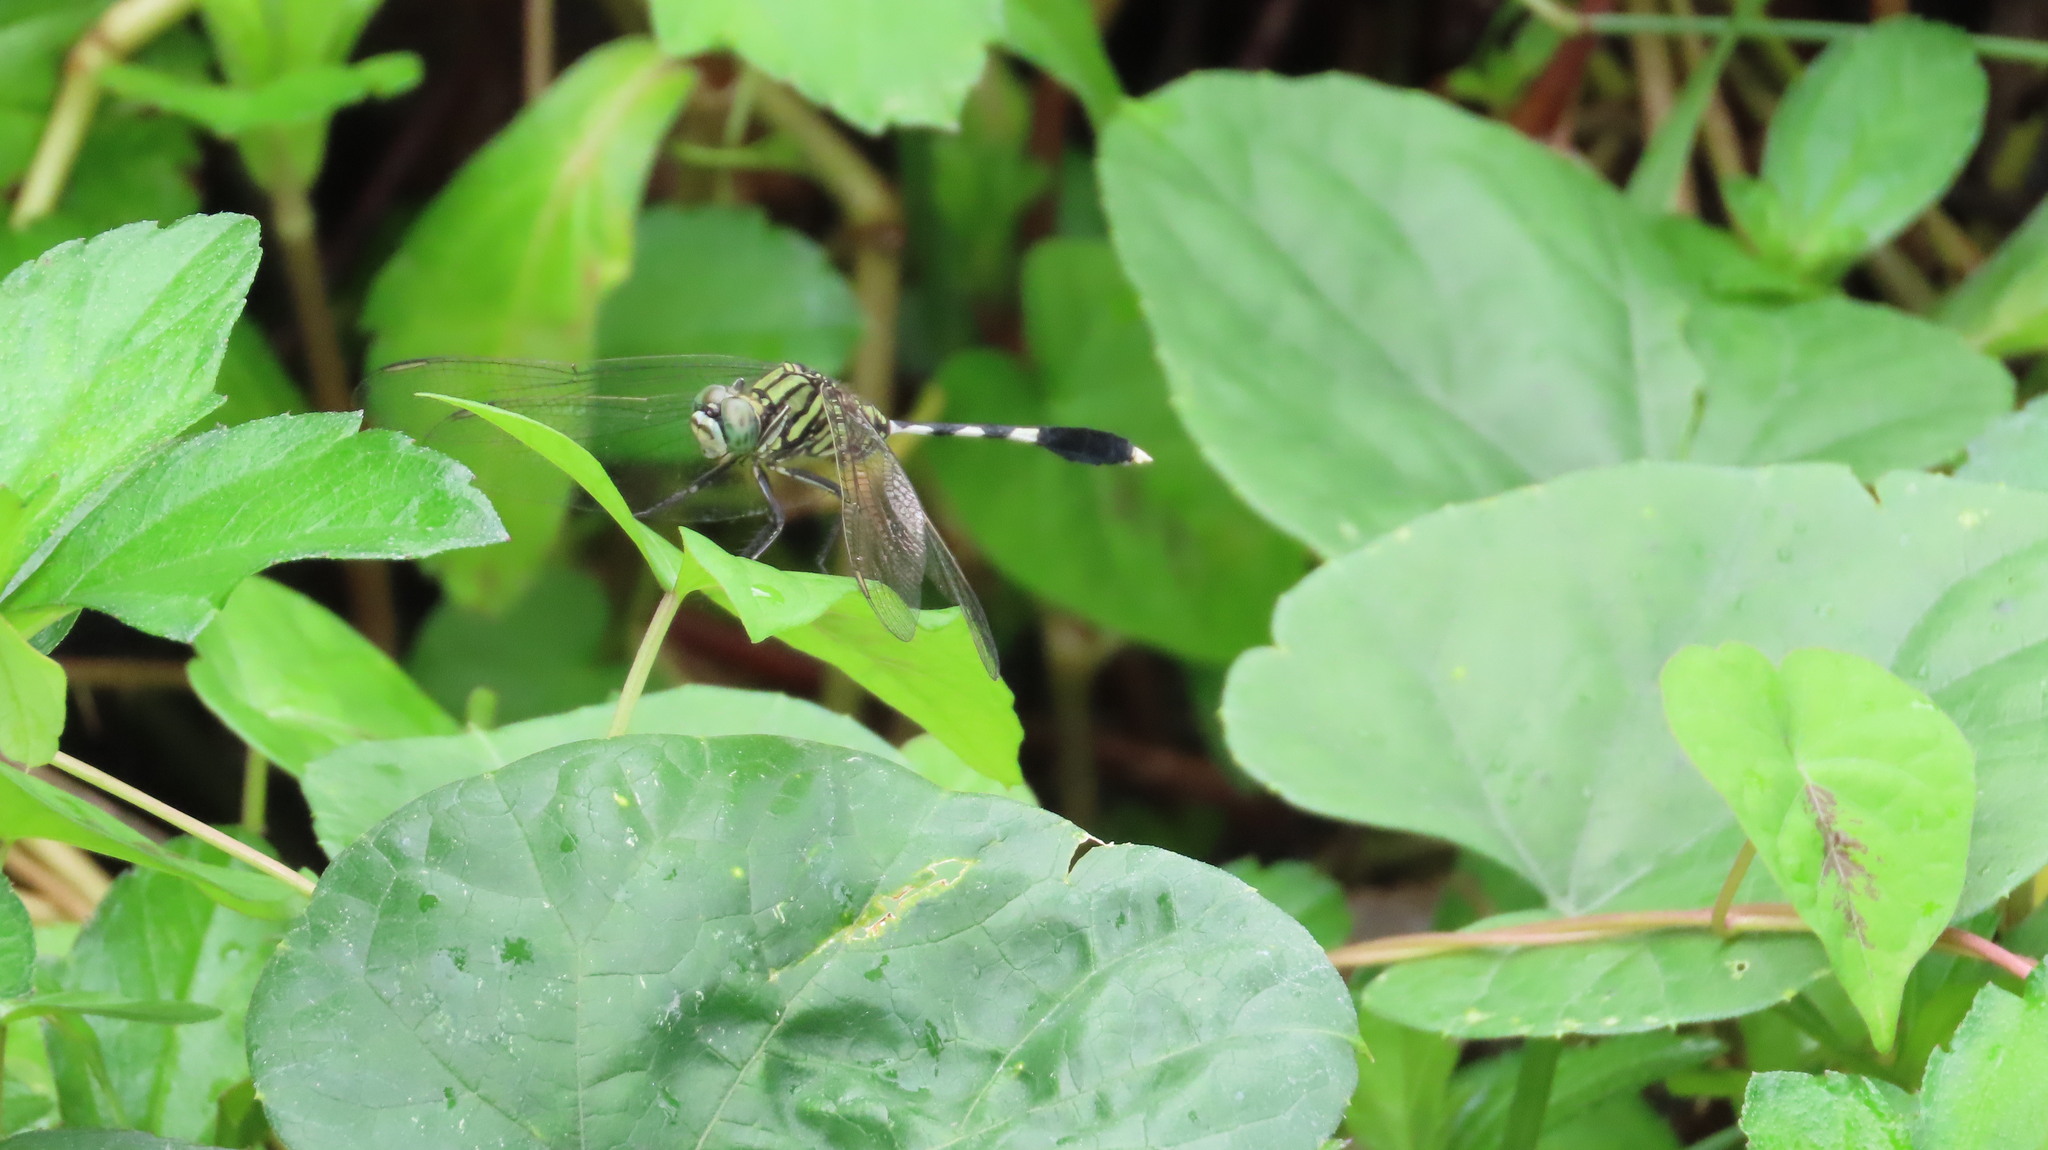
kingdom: Animalia
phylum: Arthropoda
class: Insecta
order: Odonata
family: Libellulidae
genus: Orthetrum
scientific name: Orthetrum sabina
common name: Slender skimmer
